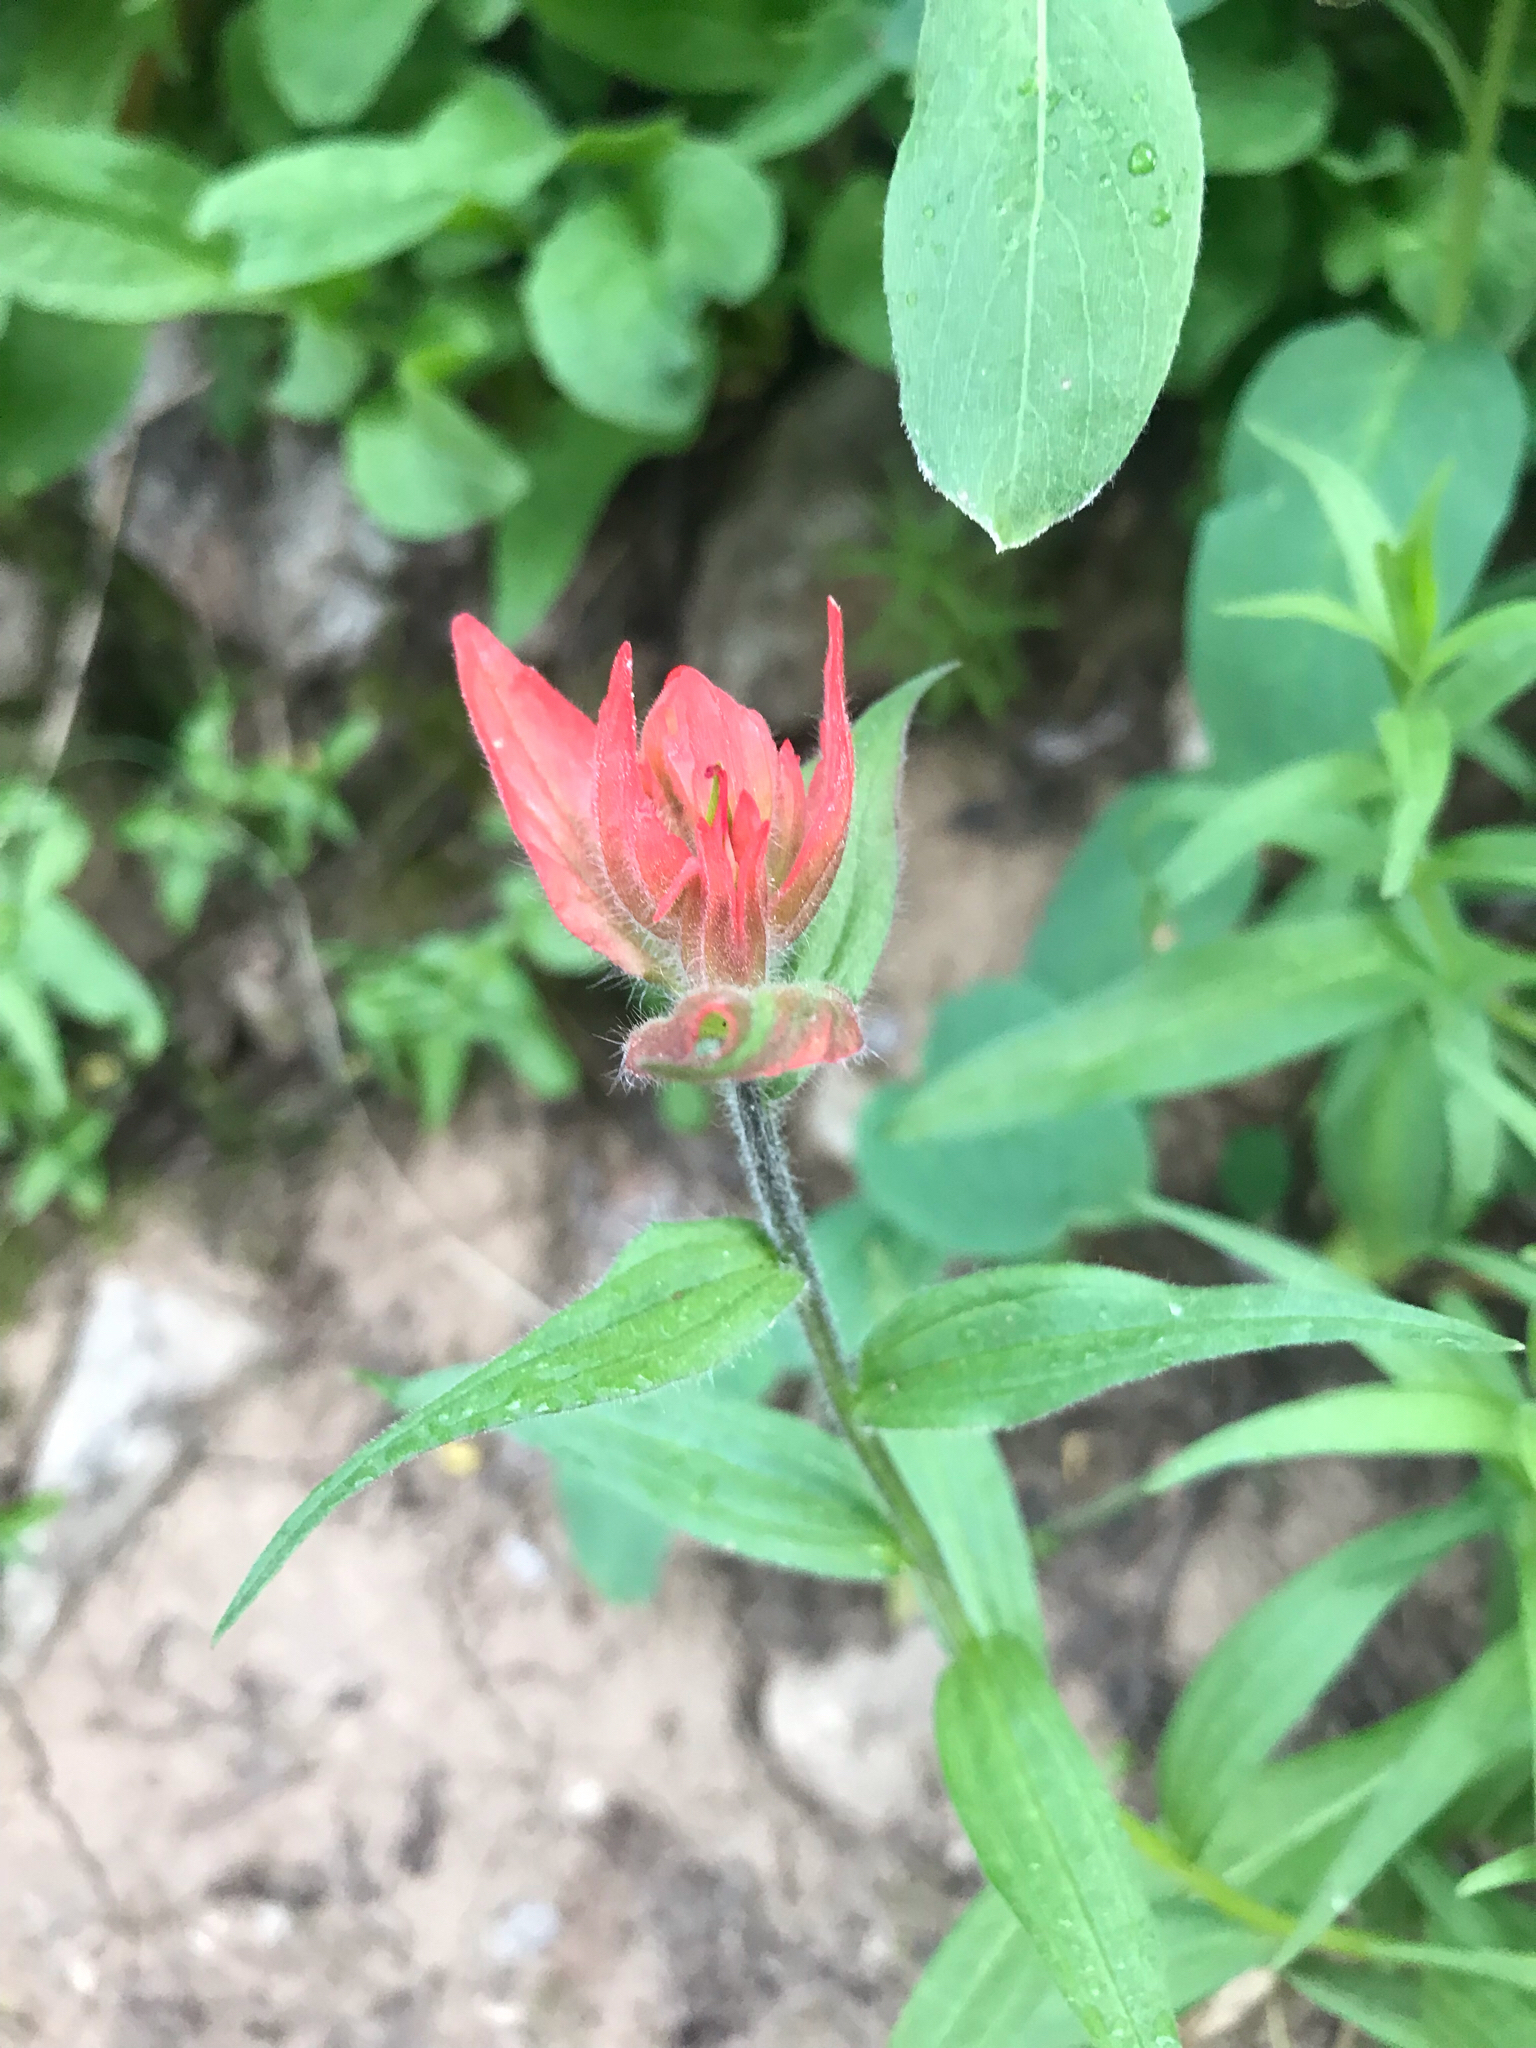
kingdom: Plantae
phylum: Tracheophyta
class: Magnoliopsida
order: Lamiales
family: Orobanchaceae
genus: Castilleja
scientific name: Castilleja miniata
